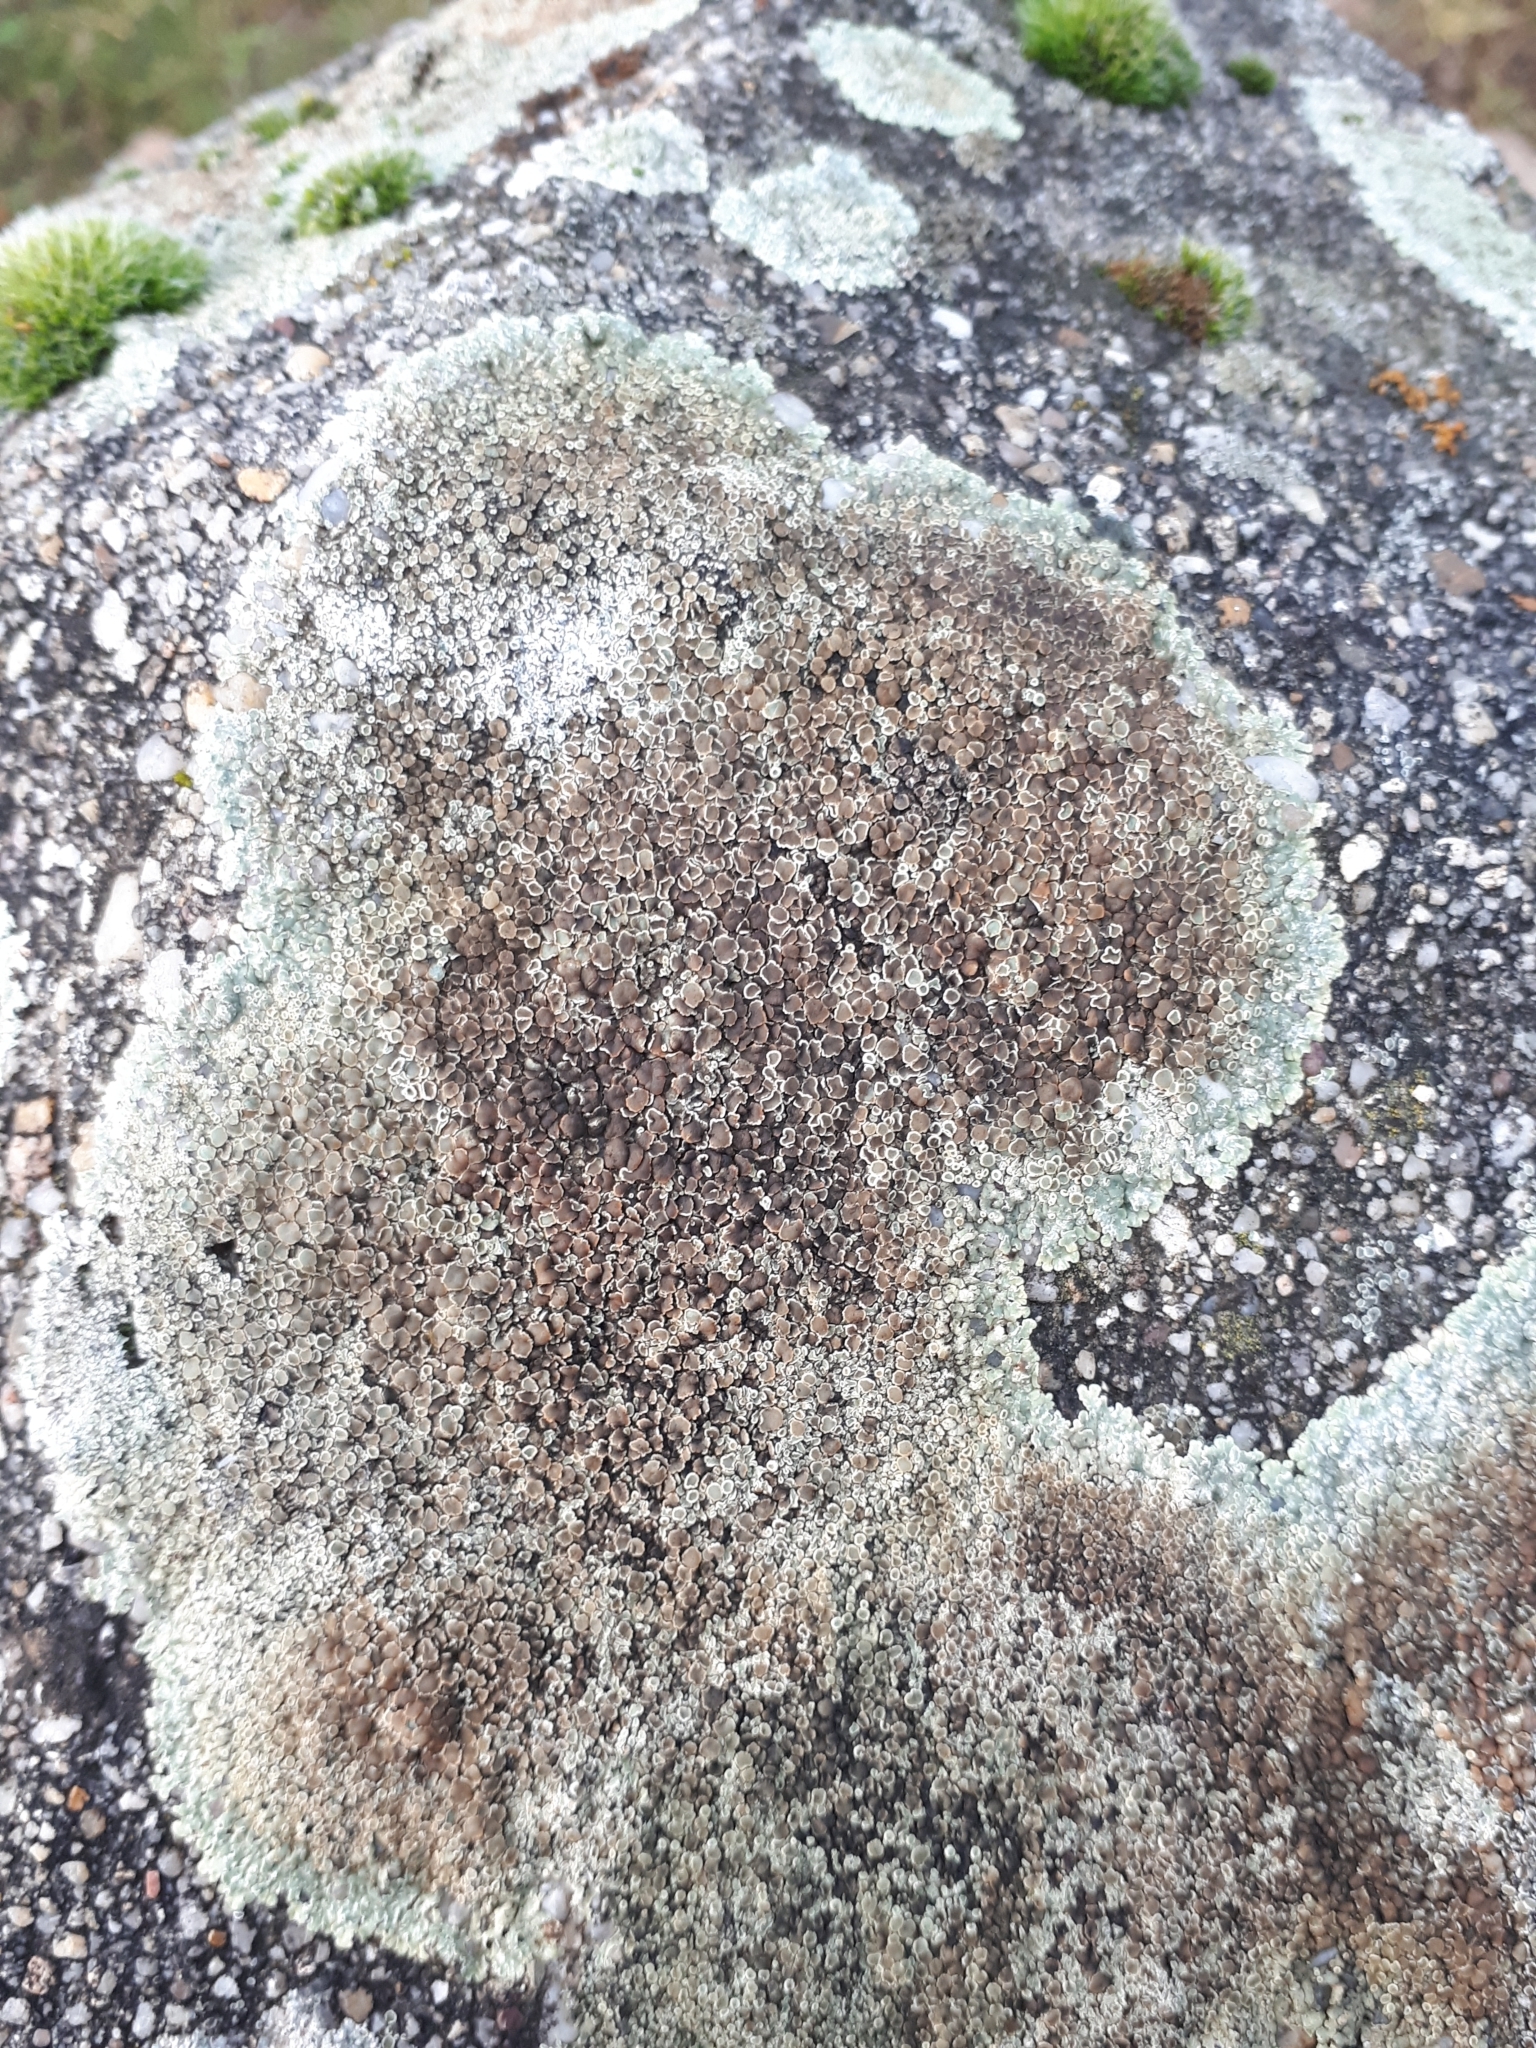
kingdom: Fungi
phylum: Ascomycota
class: Lecanoromycetes
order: Lecanorales
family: Lecanoraceae
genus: Protoparmeliopsis
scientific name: Protoparmeliopsis muralis
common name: Stonewall rim lichen
